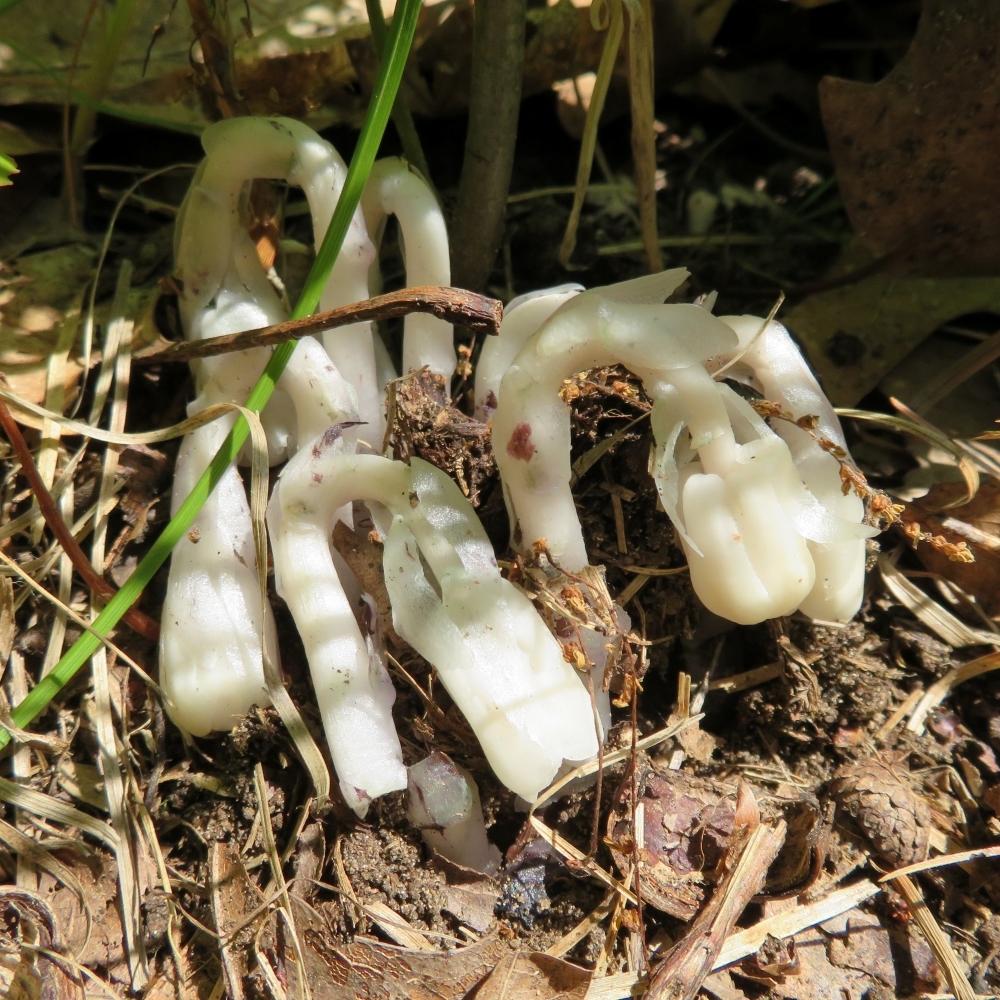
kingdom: Plantae
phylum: Tracheophyta
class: Magnoliopsida
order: Ericales
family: Ericaceae
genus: Monotropa
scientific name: Monotropa uniflora
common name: Convulsion root
